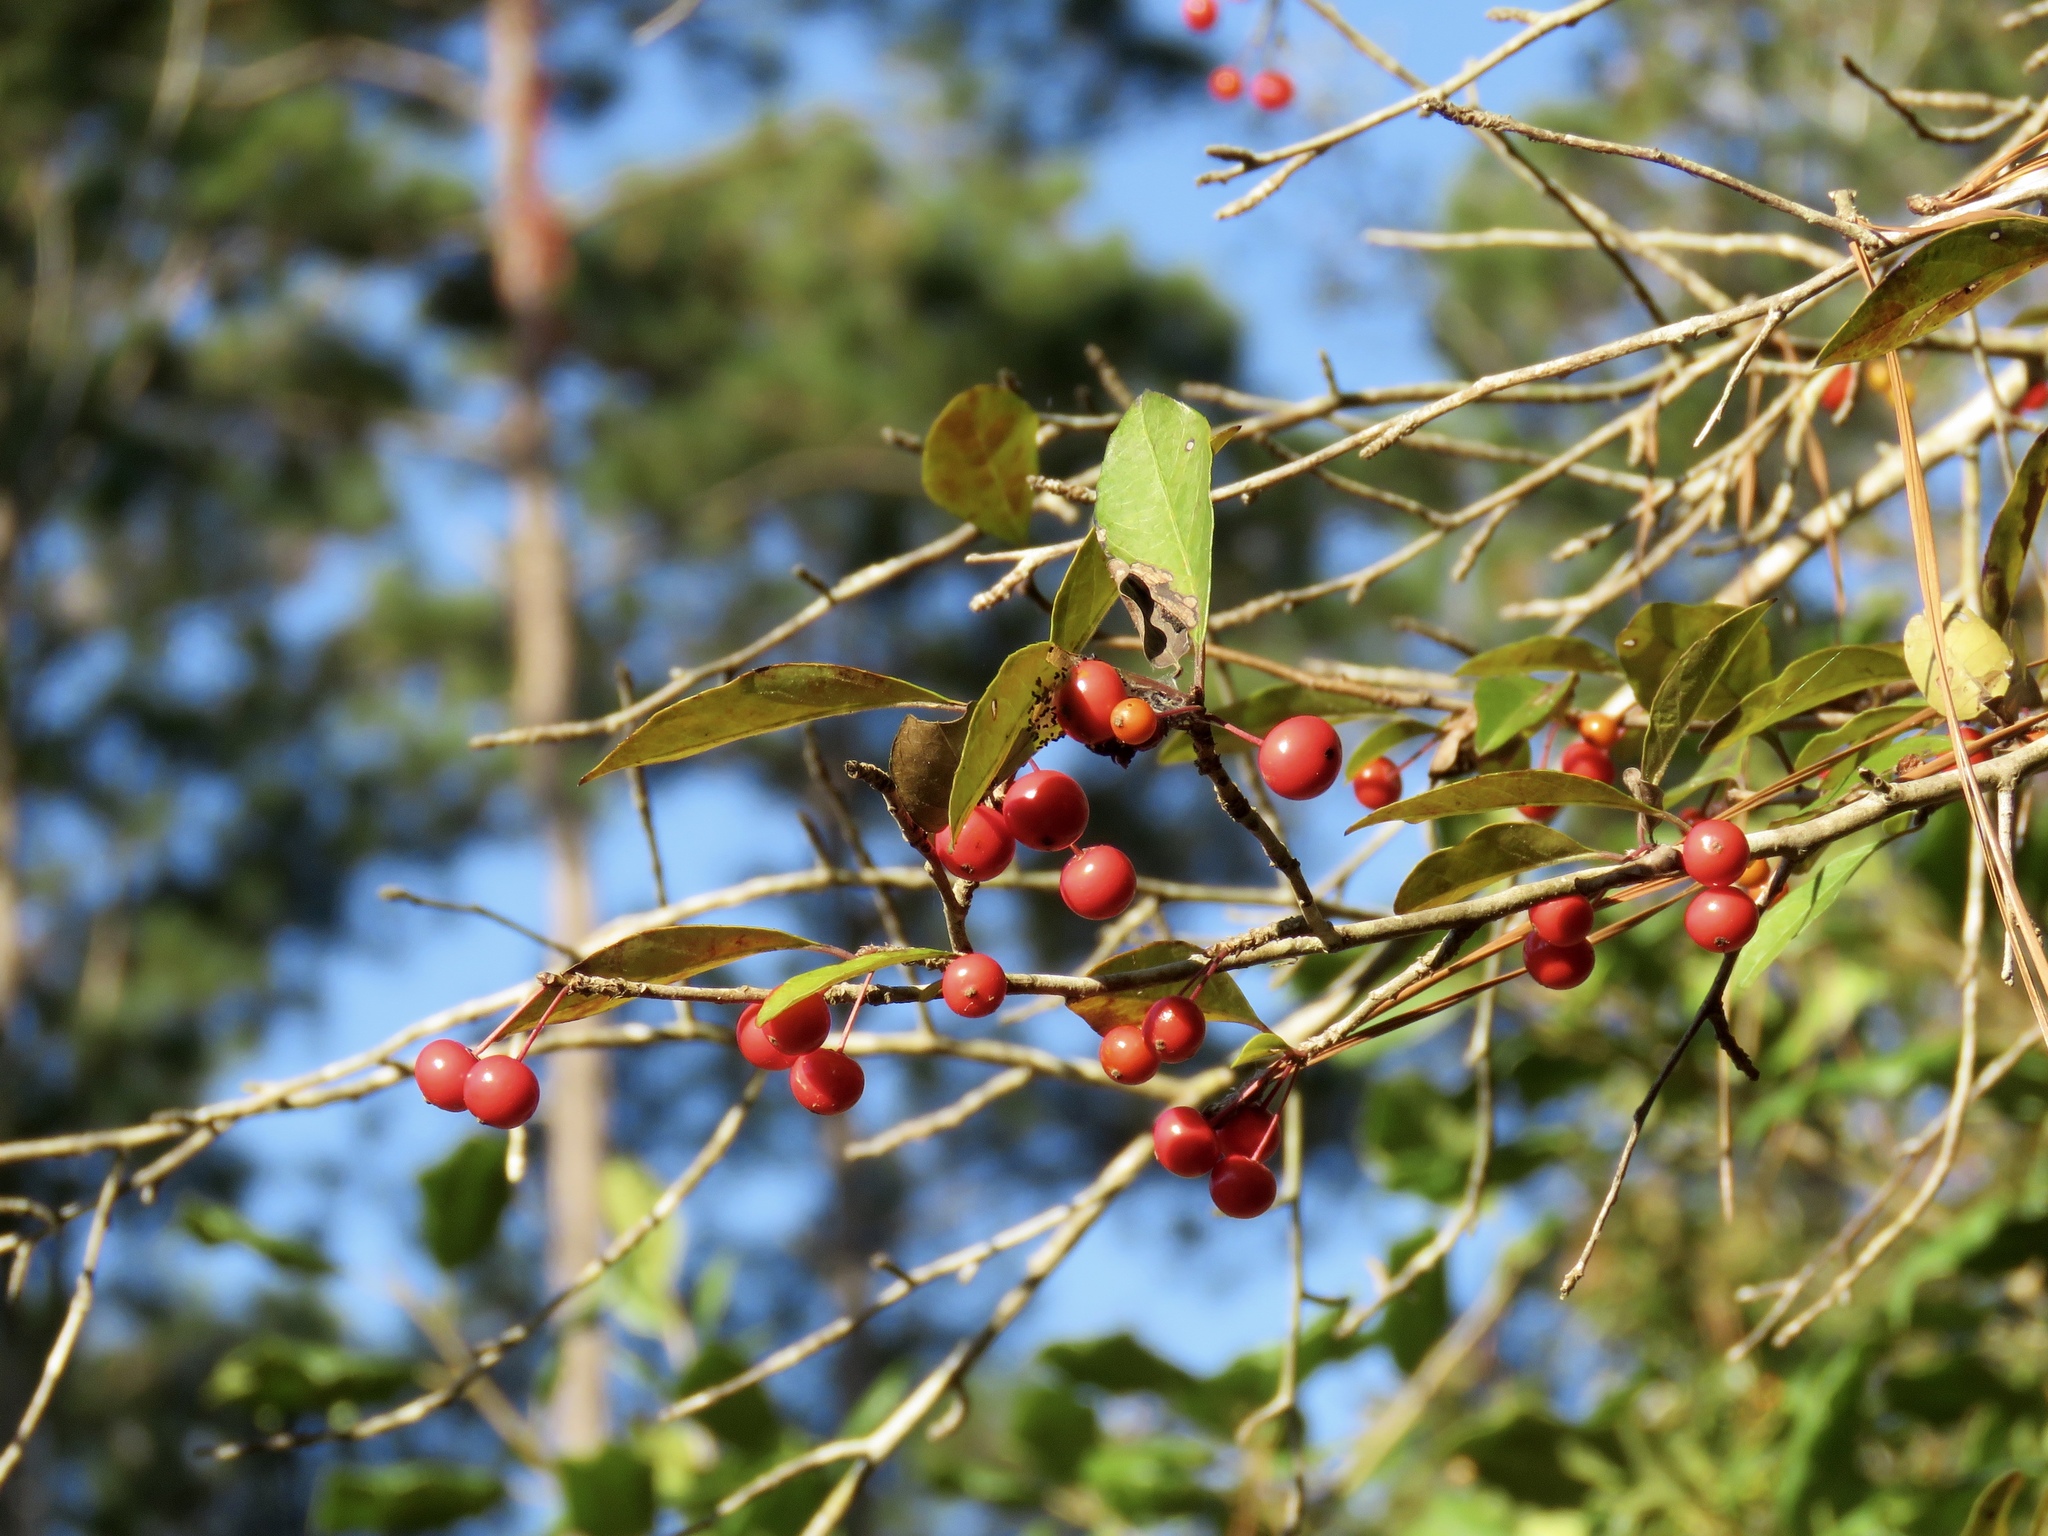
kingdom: Plantae
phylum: Tracheophyta
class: Magnoliopsida
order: Aquifoliales
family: Aquifoliaceae
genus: Ilex
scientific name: Ilex longipes
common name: Georgia holly
